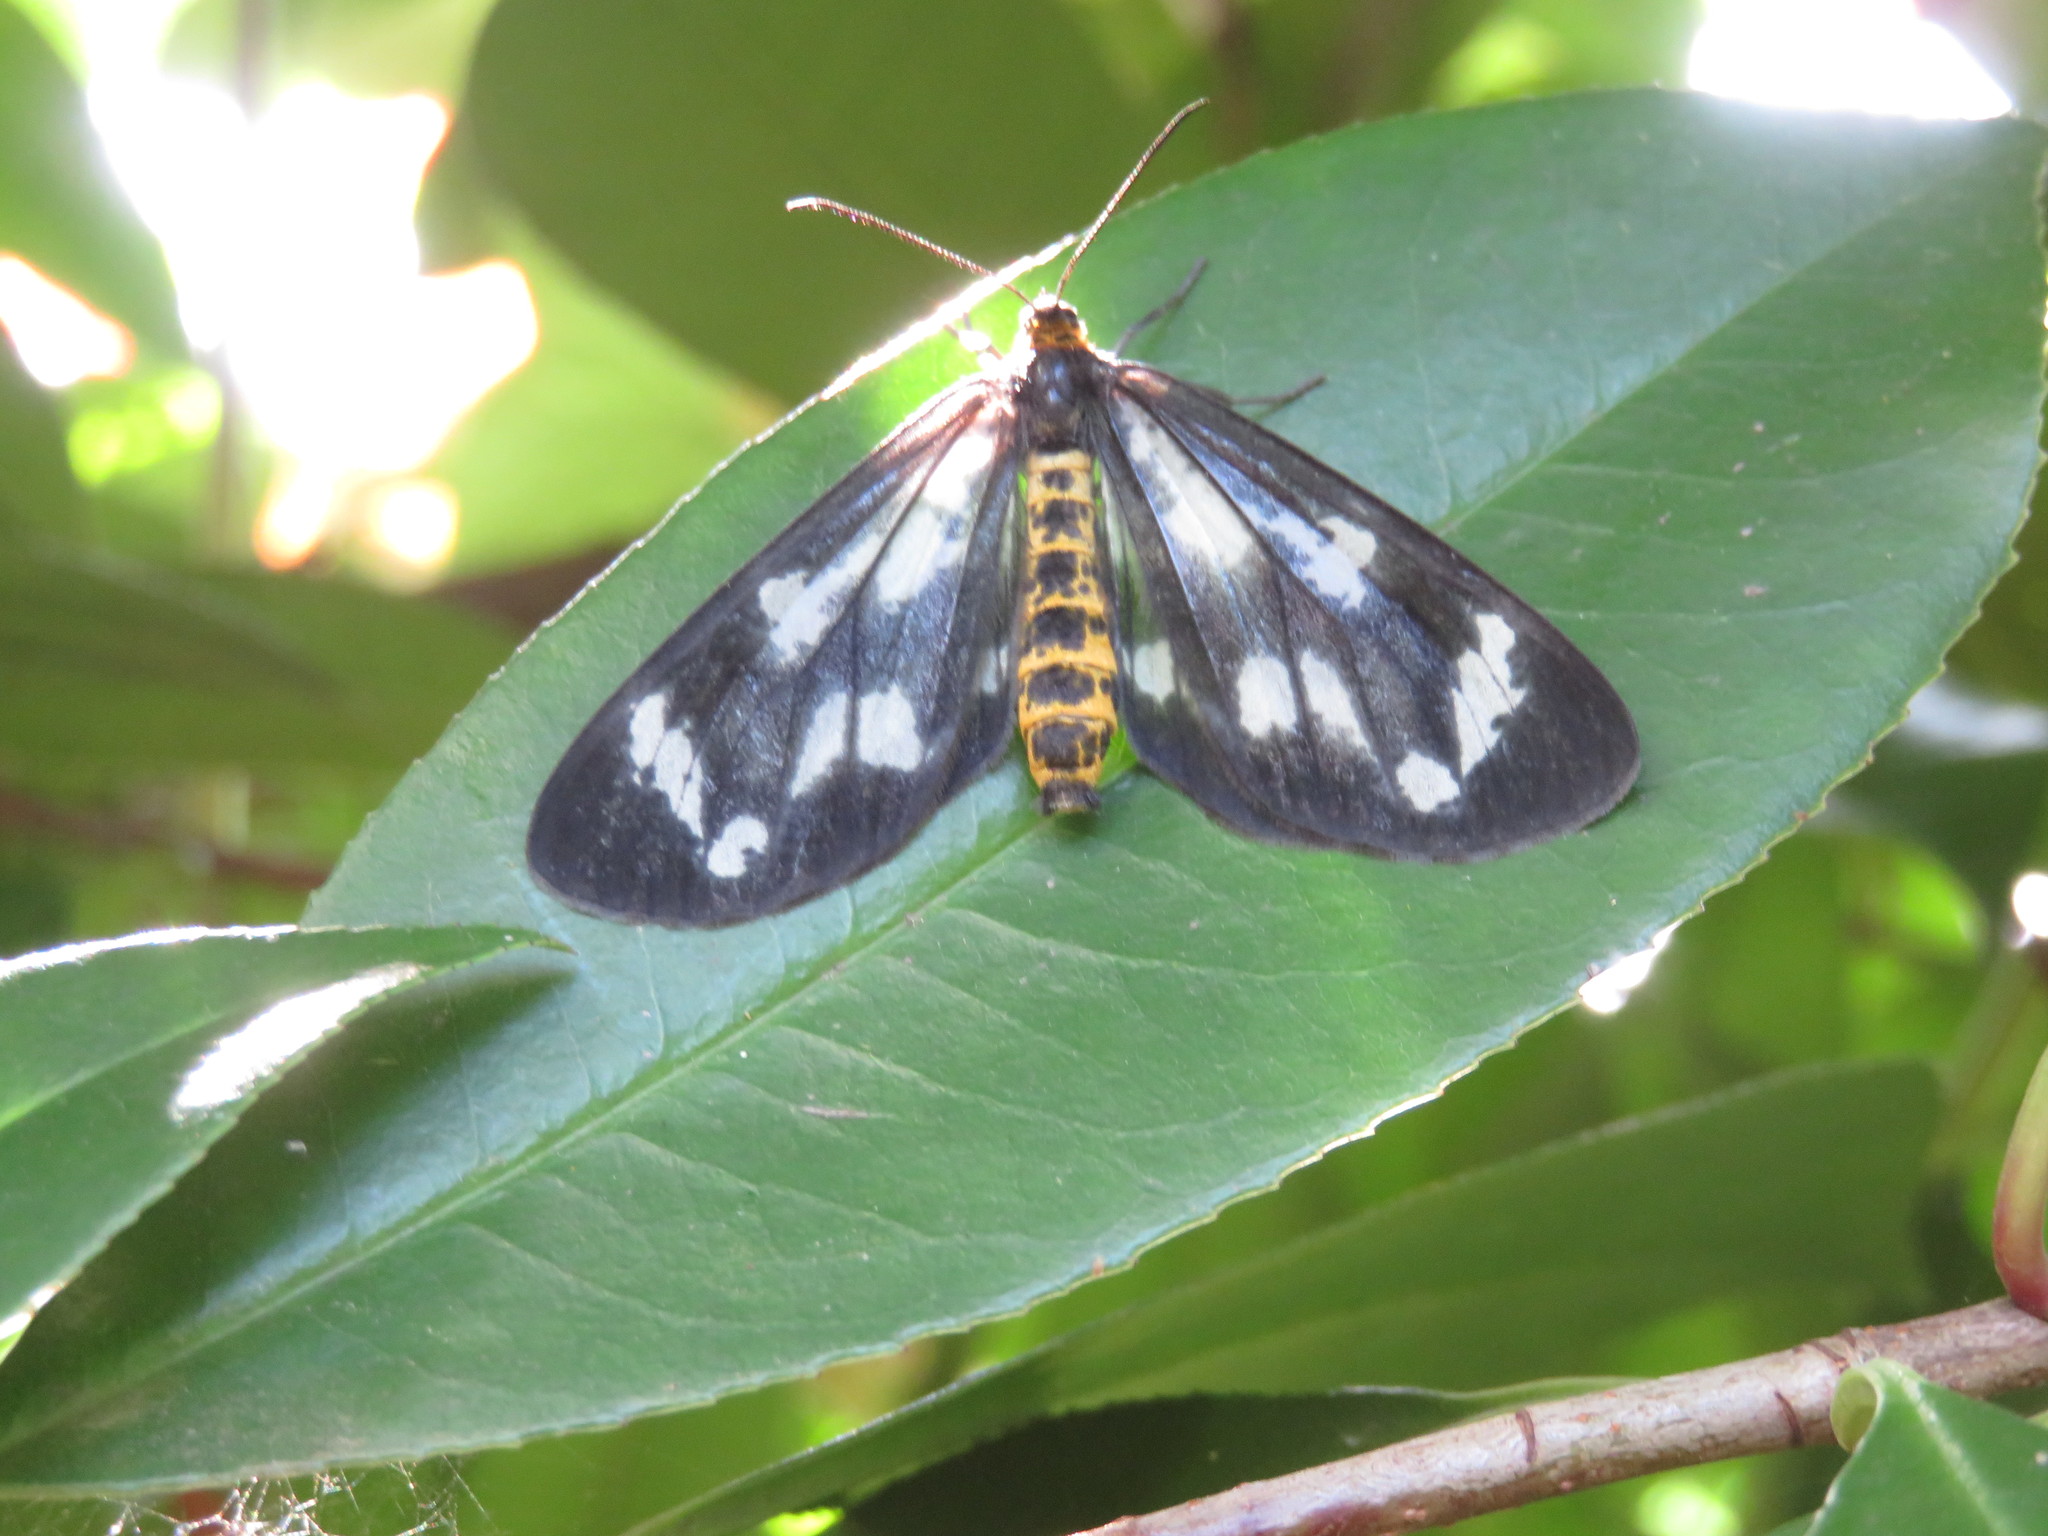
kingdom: Animalia
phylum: Arthropoda
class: Insecta
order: Lepidoptera
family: Geometridae
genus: Cystidia
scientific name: Cystidia truncangulata
